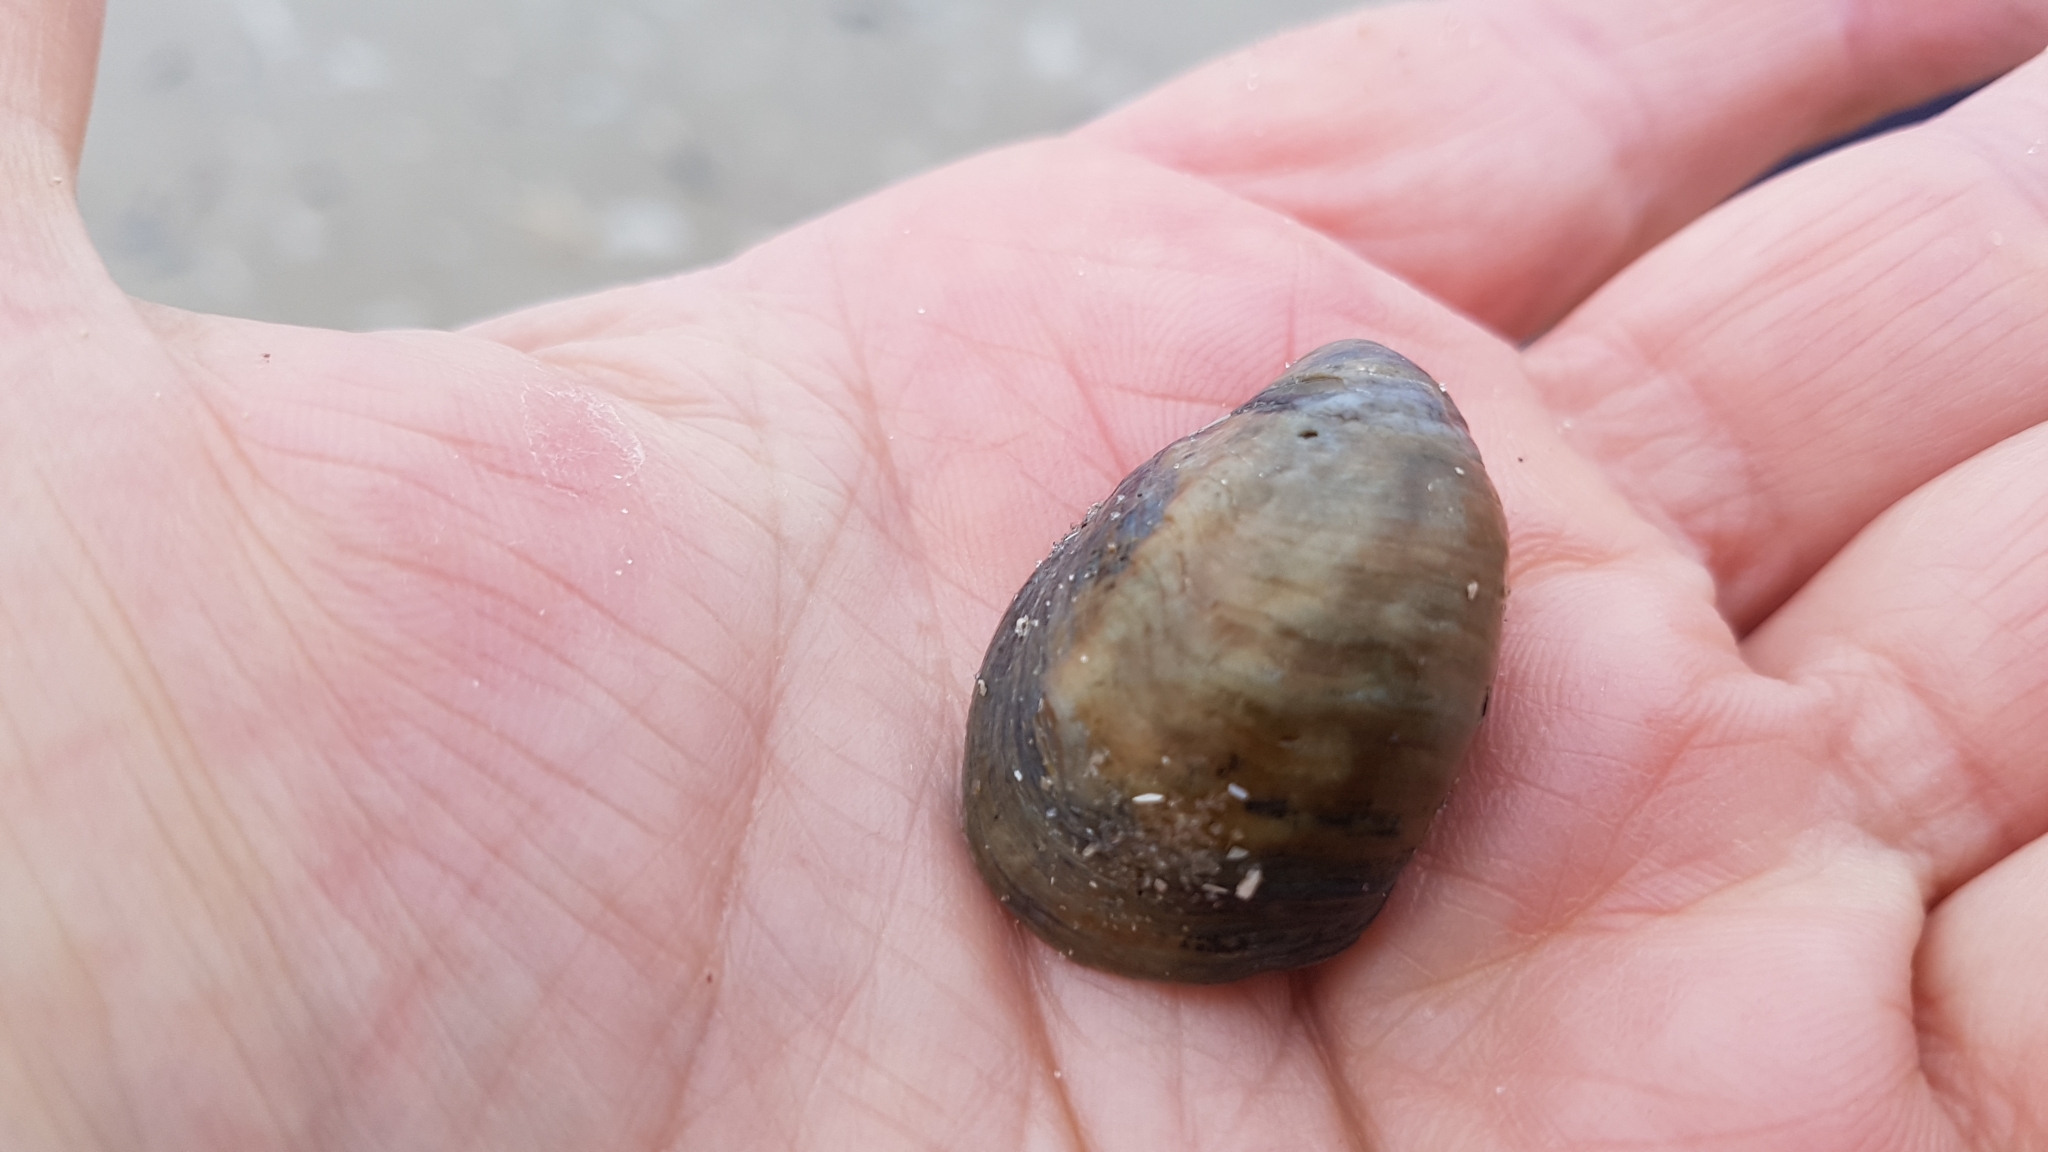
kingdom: Animalia
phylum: Mollusca
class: Gastropoda
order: Littorinimorpha
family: Calyptraeidae
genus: Crepidula
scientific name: Crepidula fornicata
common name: Slipper limpet
